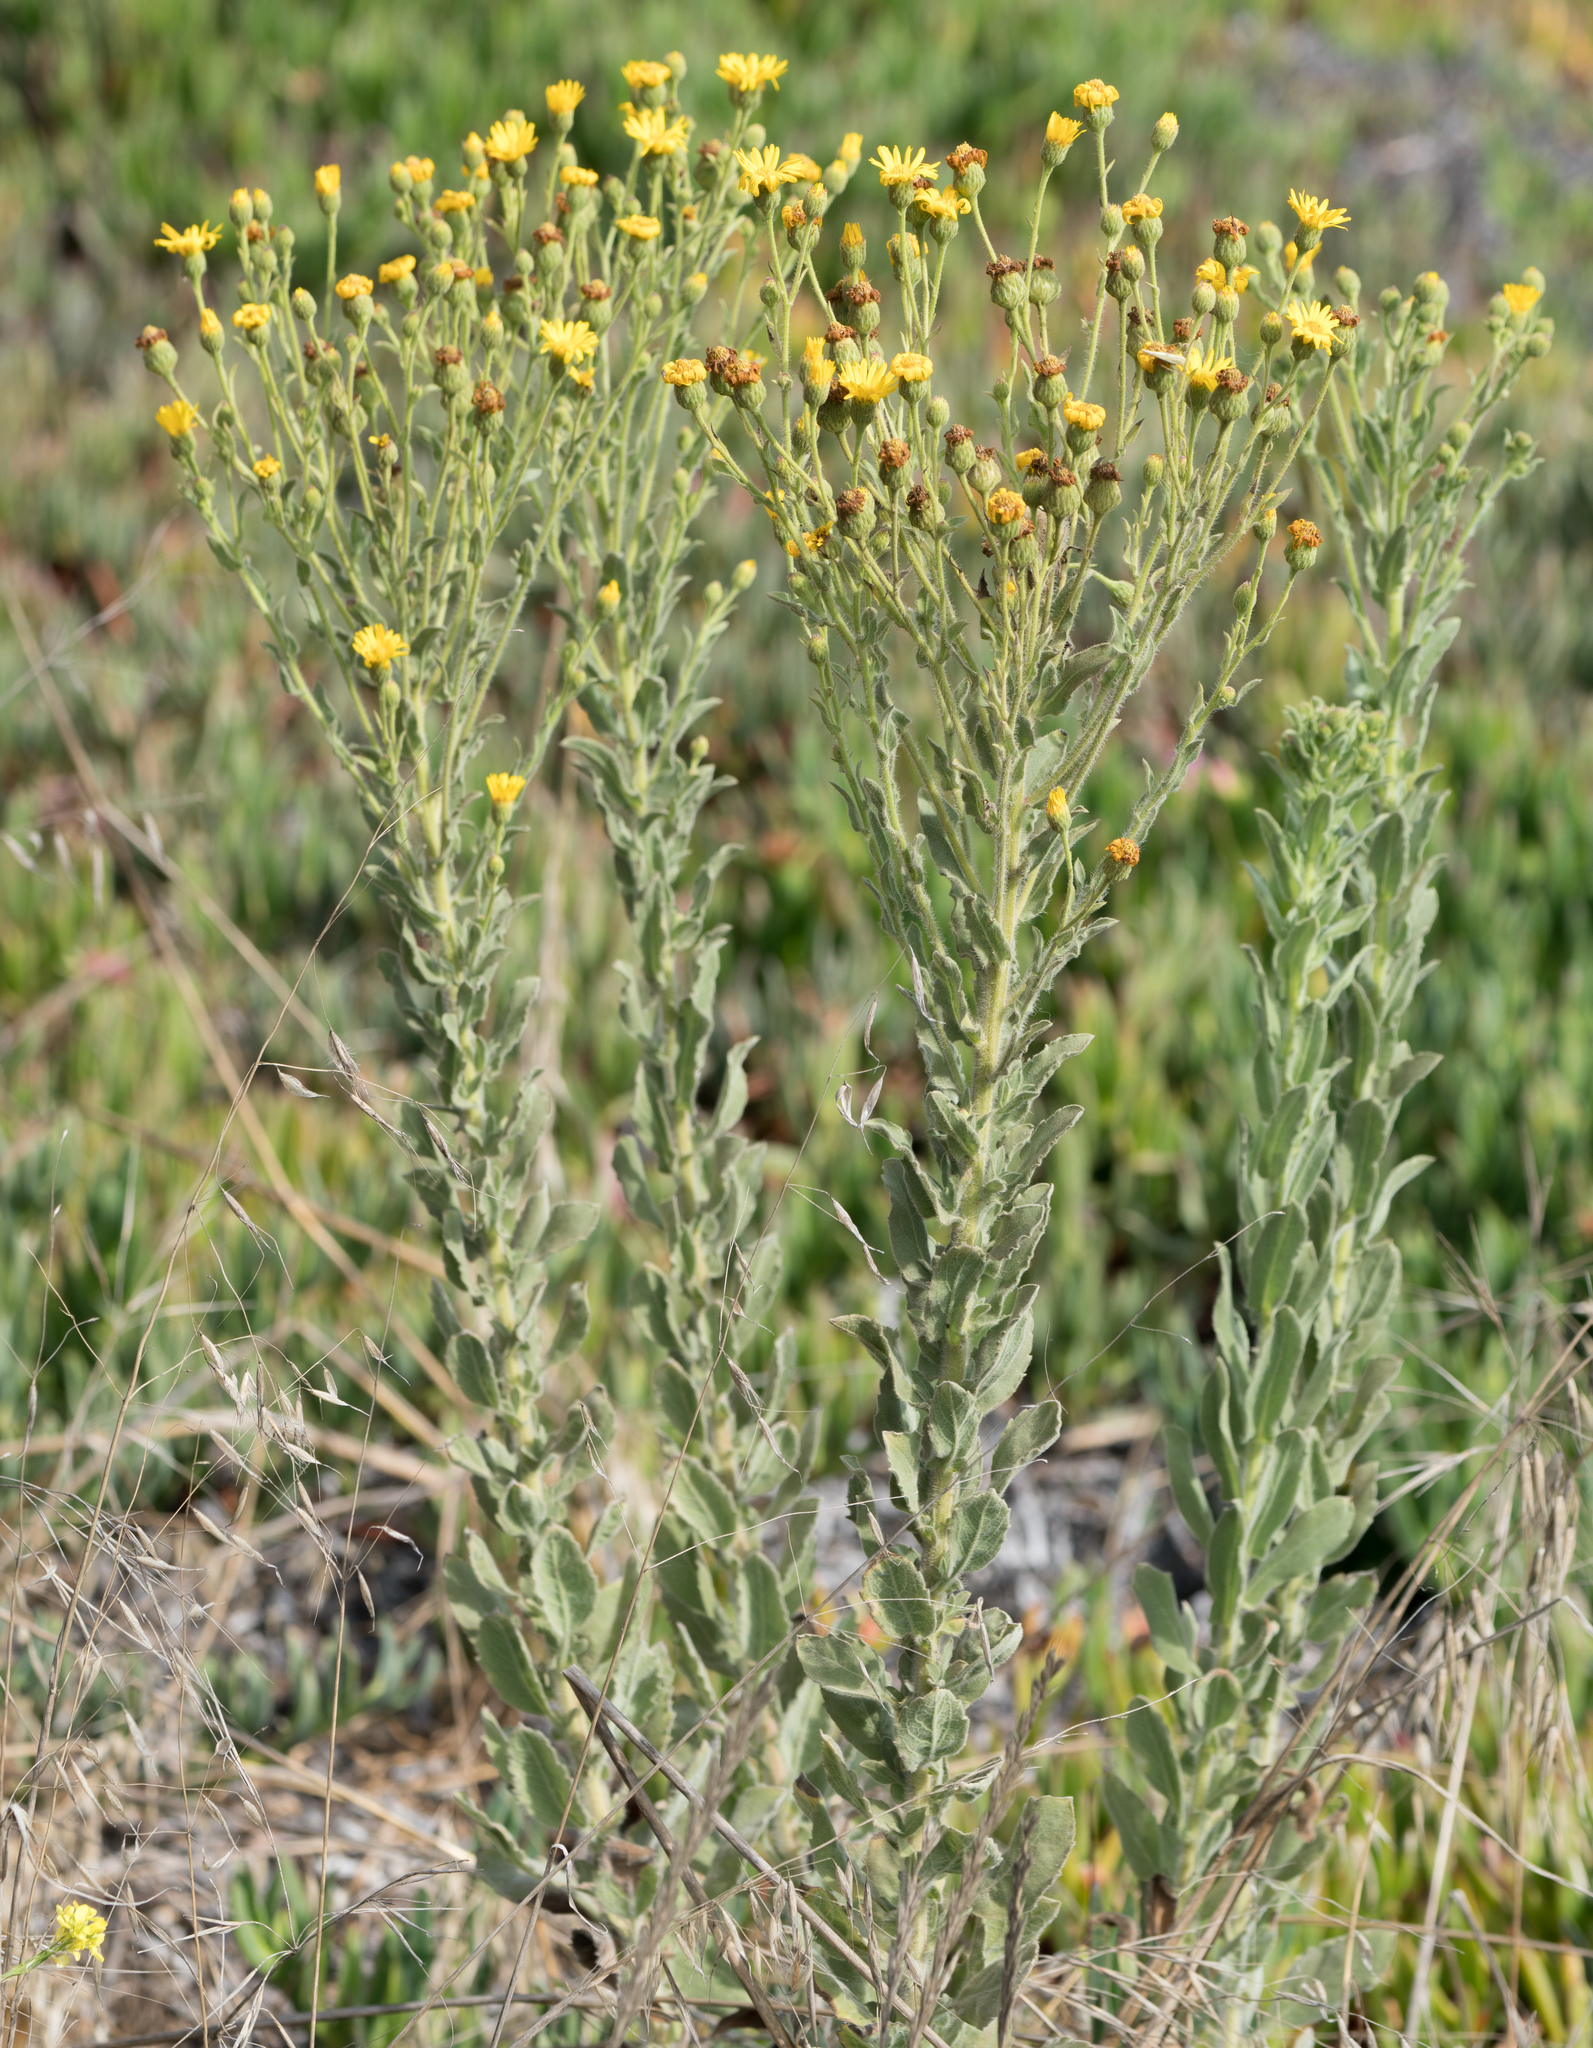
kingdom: Plantae
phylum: Tracheophyta
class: Magnoliopsida
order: Asterales
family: Asteraceae
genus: Heterotheca
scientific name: Heterotheca grandiflora
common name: Telegraphweed
